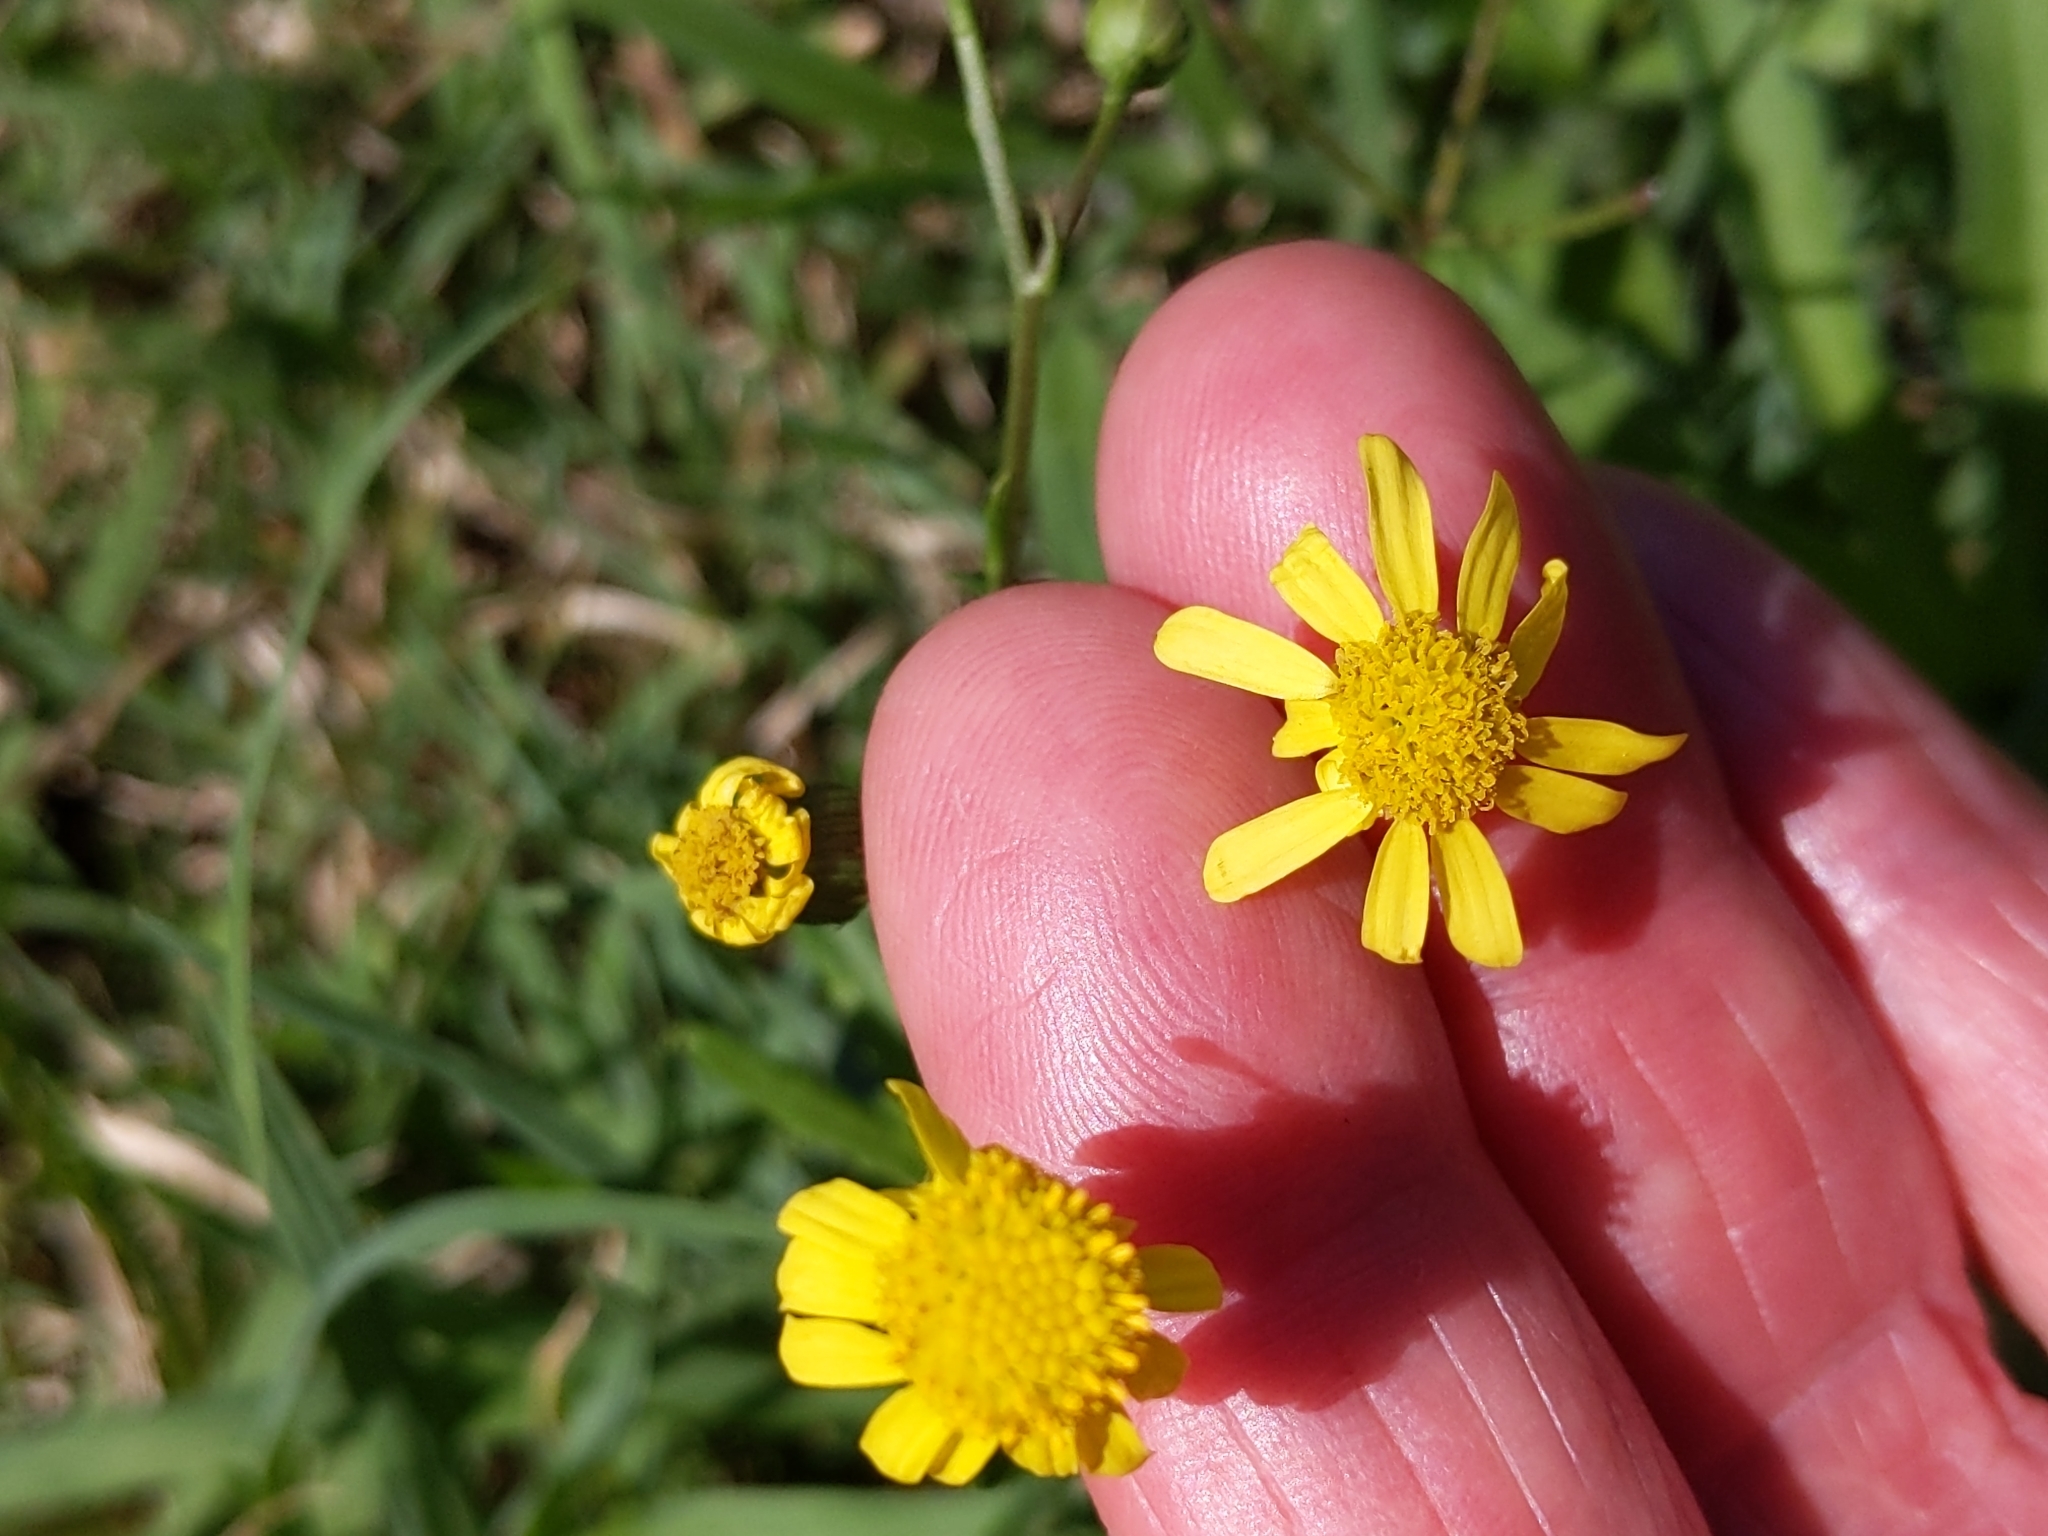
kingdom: Plantae
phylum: Tracheophyta
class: Magnoliopsida
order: Asterales
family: Asteraceae
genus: Senecio
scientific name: Senecio madagascariensis
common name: Madagascar ragwort
